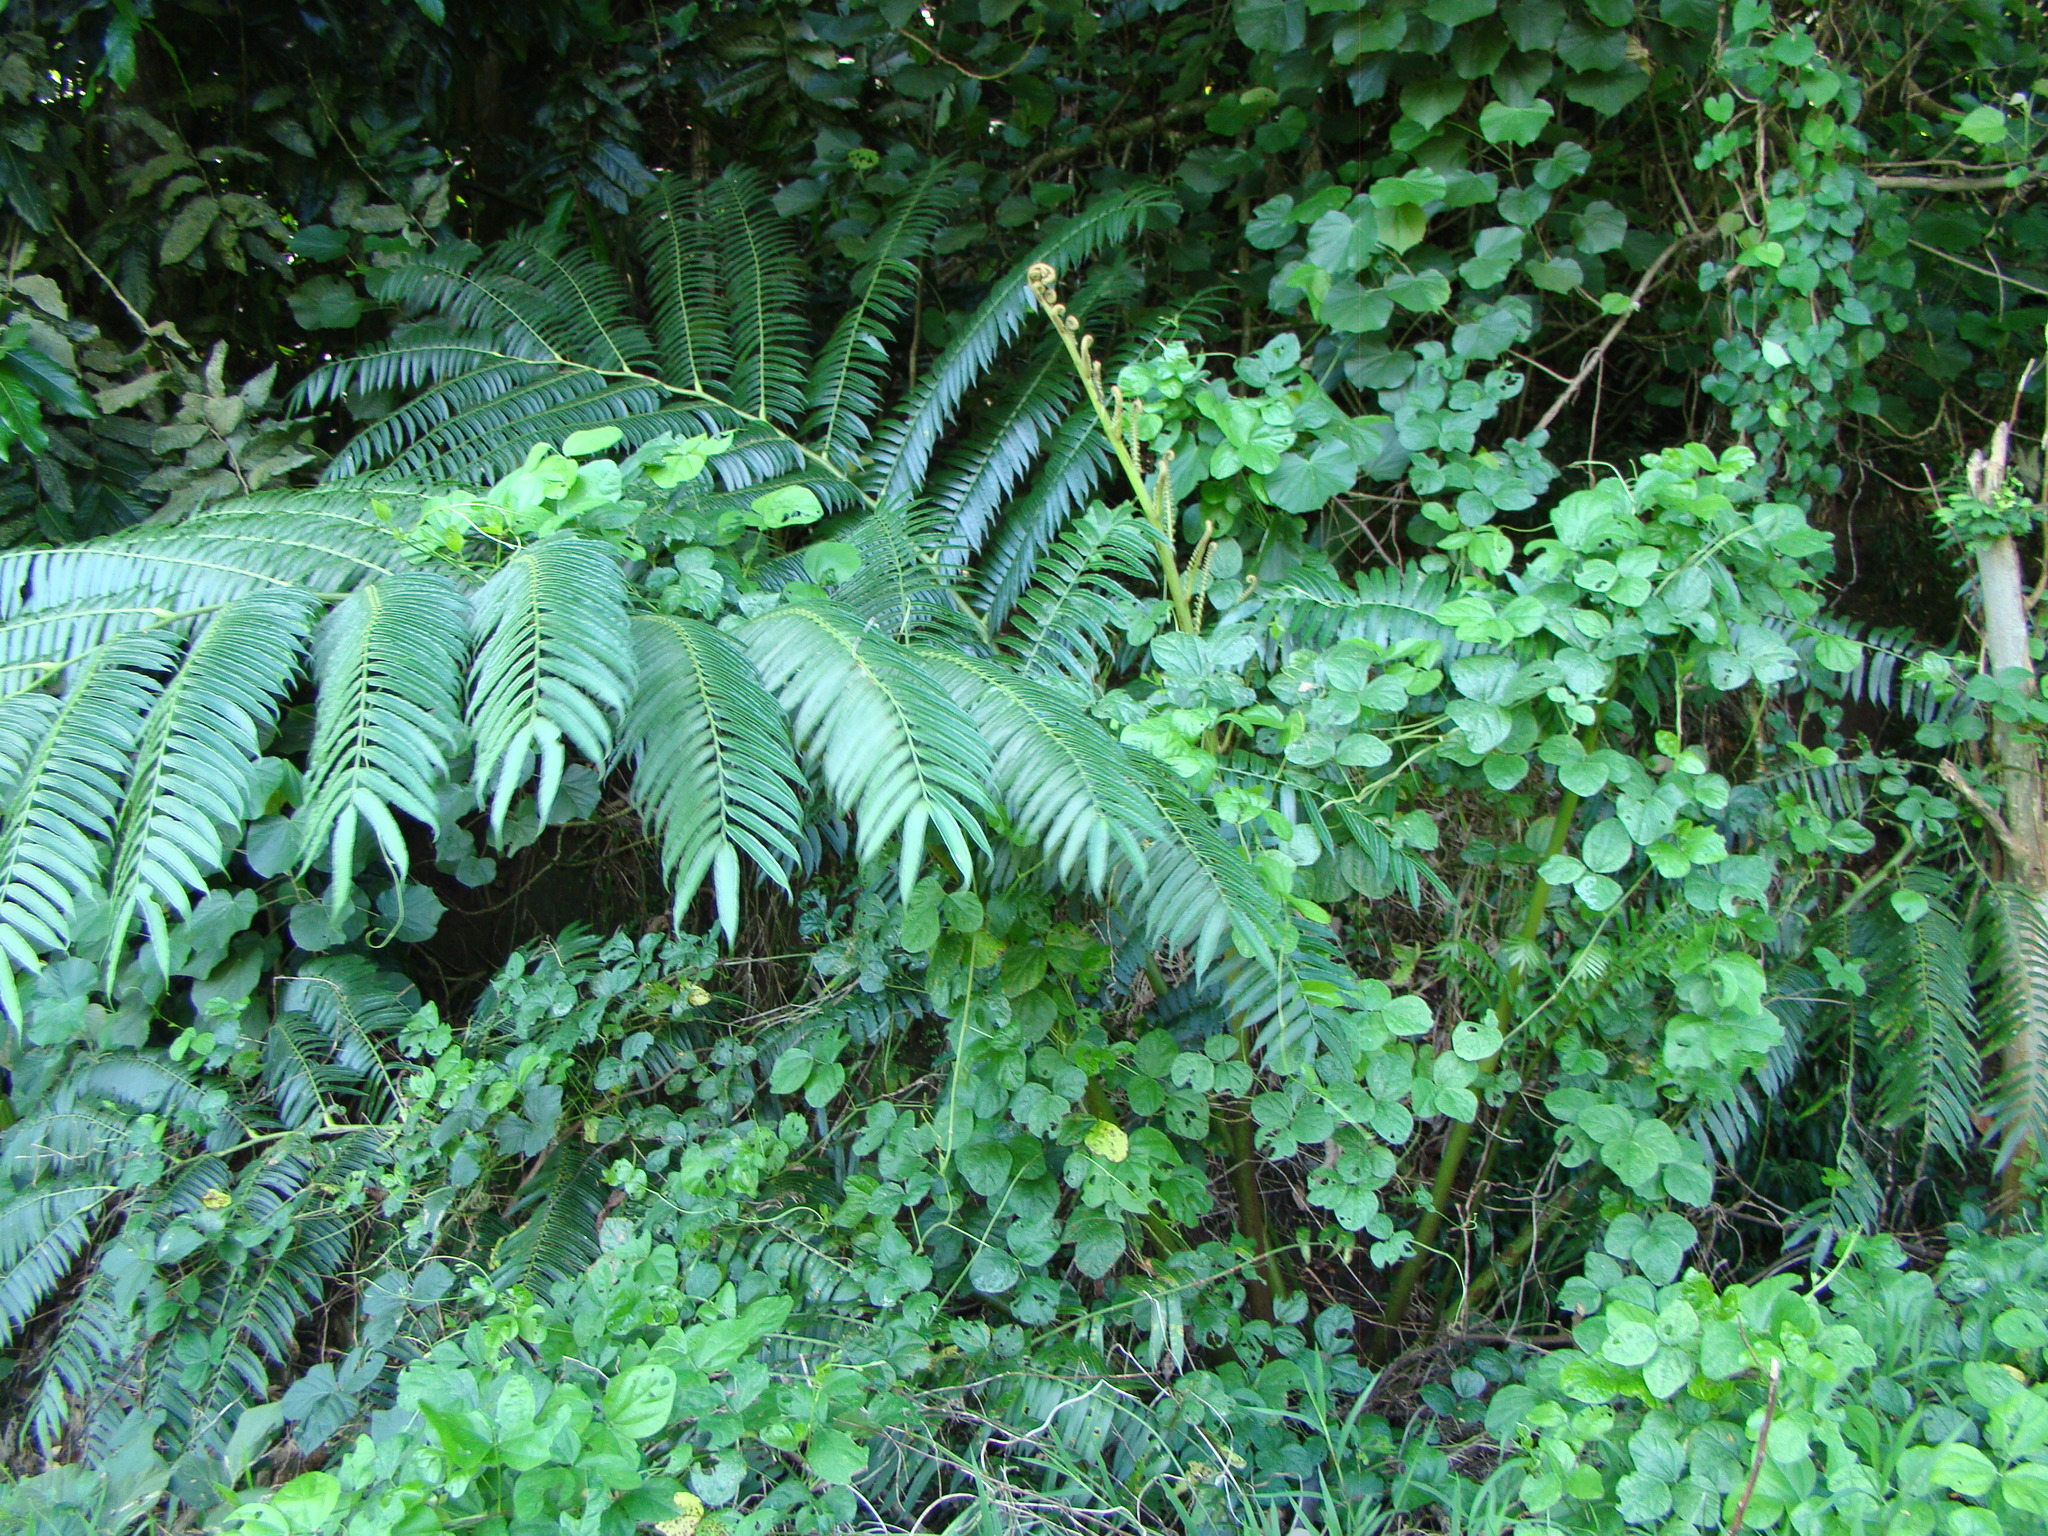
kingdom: Plantae
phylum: Tracheophyta
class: Polypodiopsida
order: Marattiales
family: Marattiaceae
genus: Angiopteris
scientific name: Angiopteris evecta
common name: Mule's-foot fern
